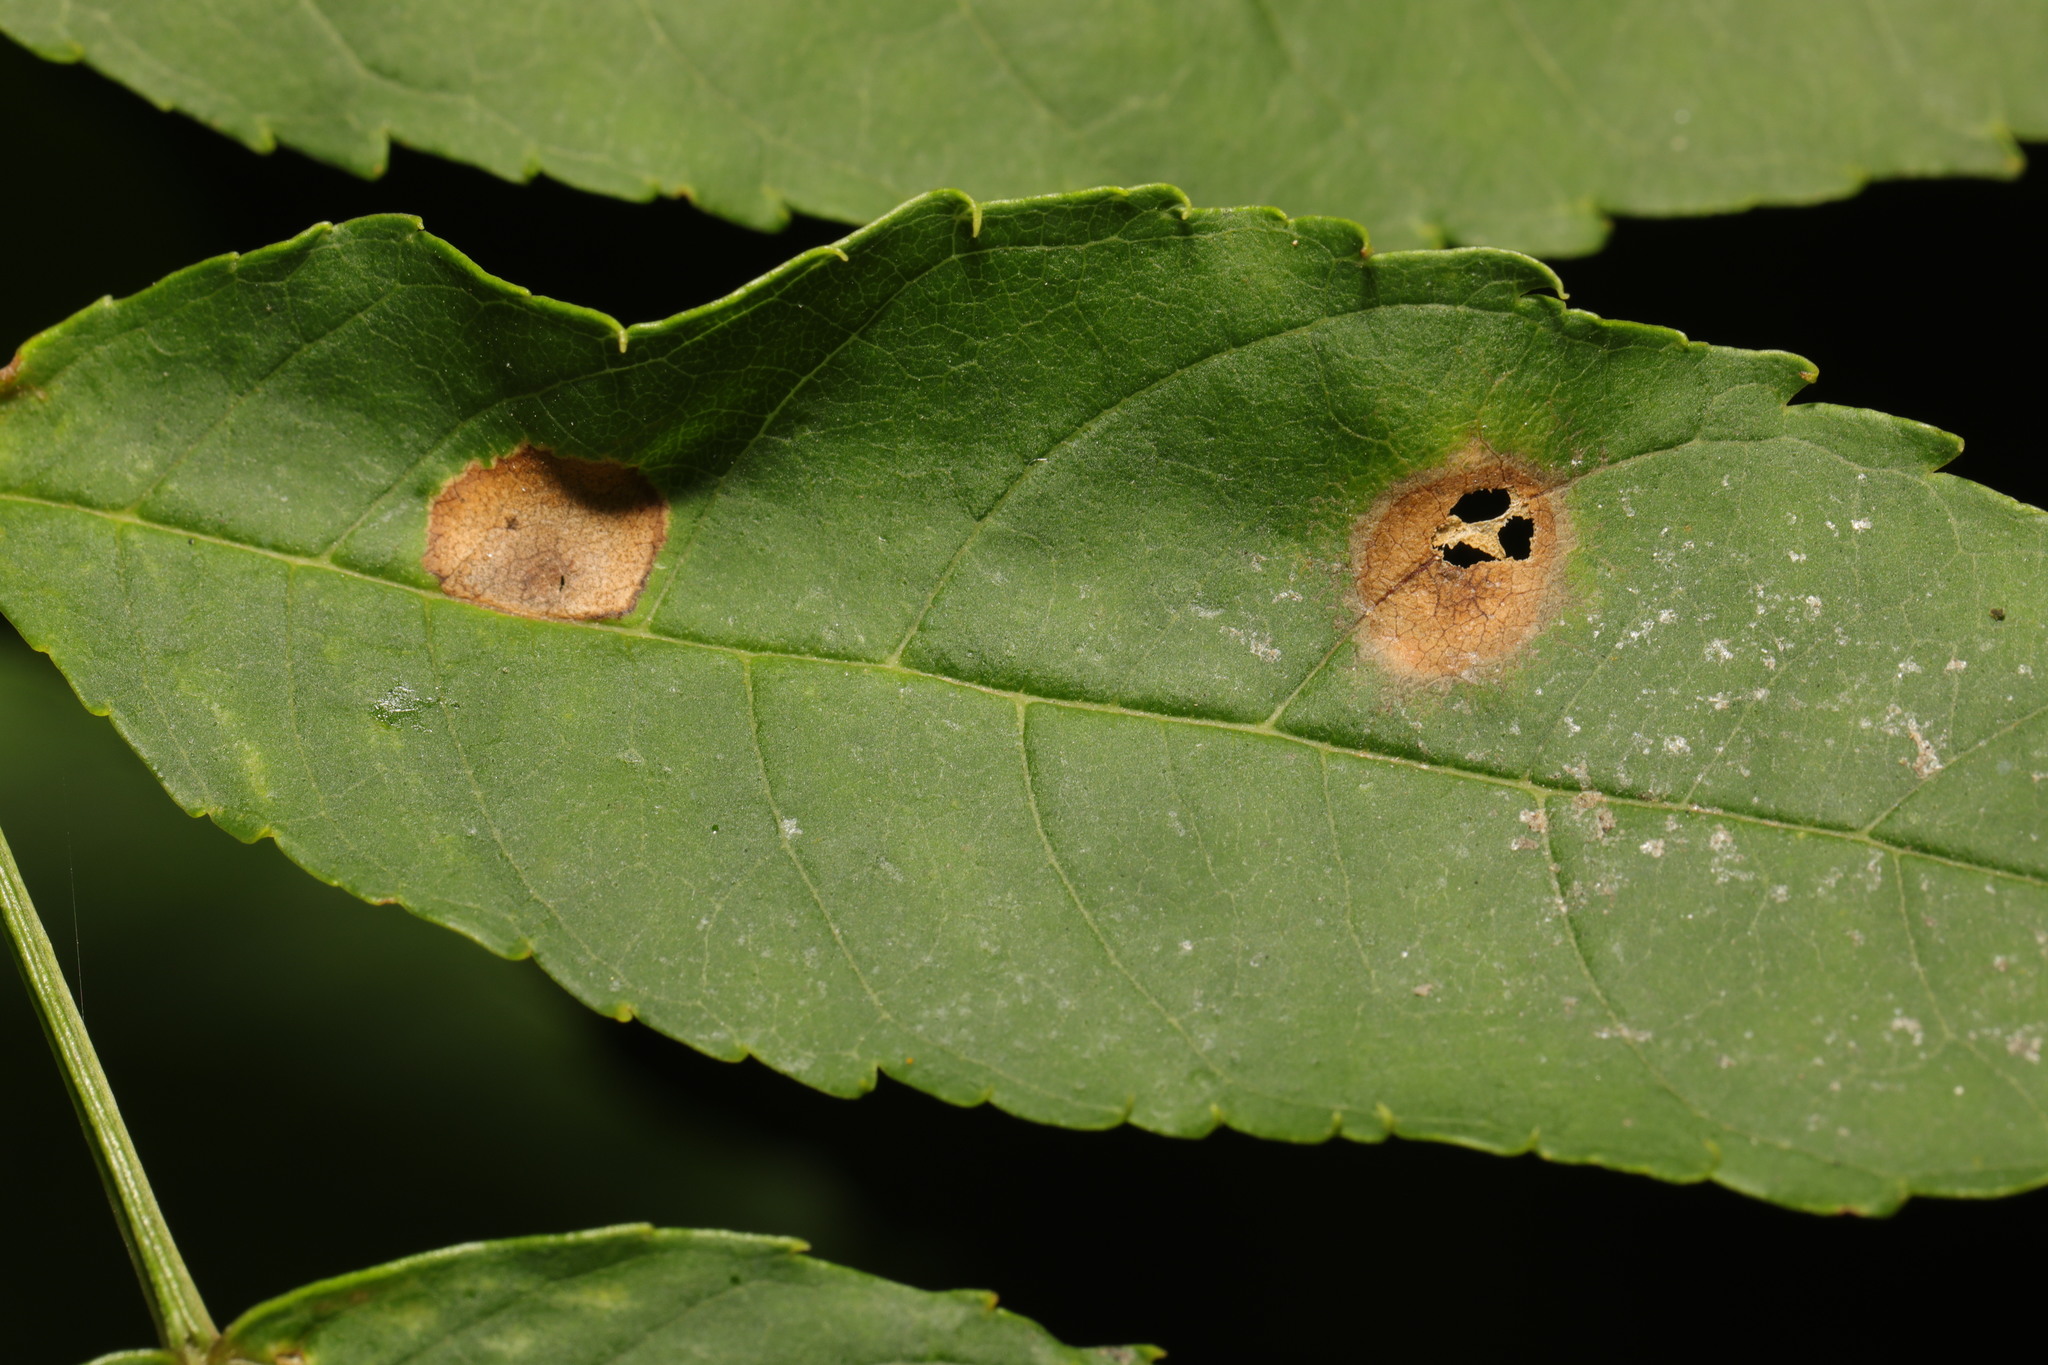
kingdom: Animalia
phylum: Arthropoda
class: Insecta
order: Diptera
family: Cecidomyiidae
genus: Dasineura
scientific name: Dasineura fraxinea
